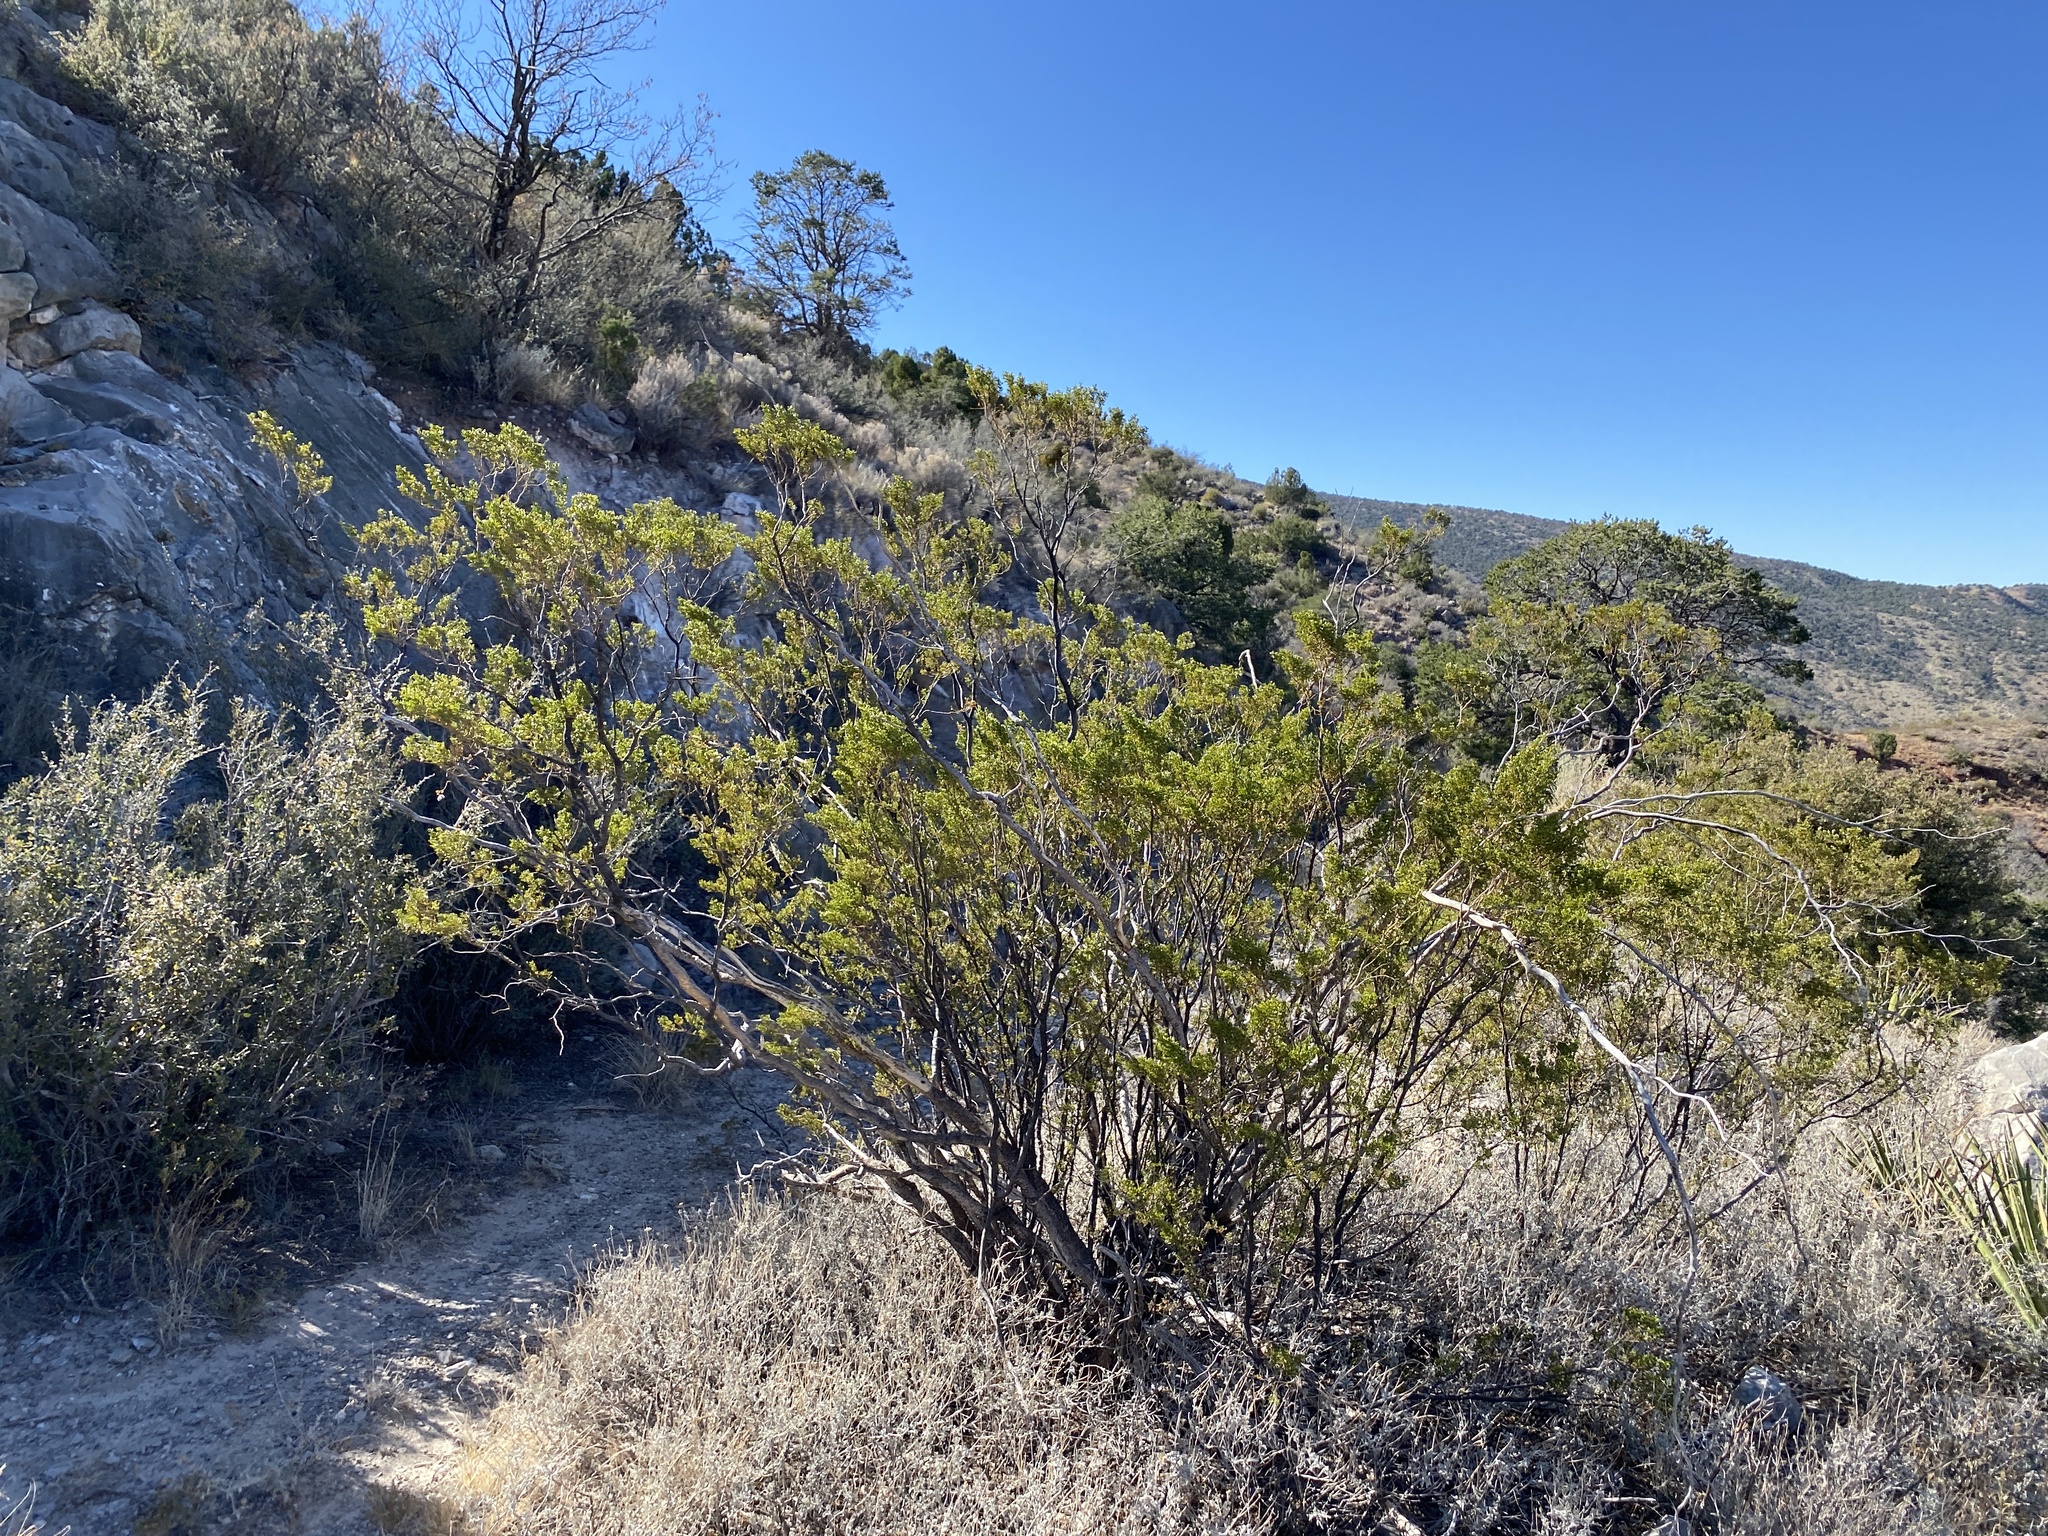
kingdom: Plantae
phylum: Tracheophyta
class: Magnoliopsida
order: Zygophyllales
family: Zygophyllaceae
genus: Larrea
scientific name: Larrea tridentata
